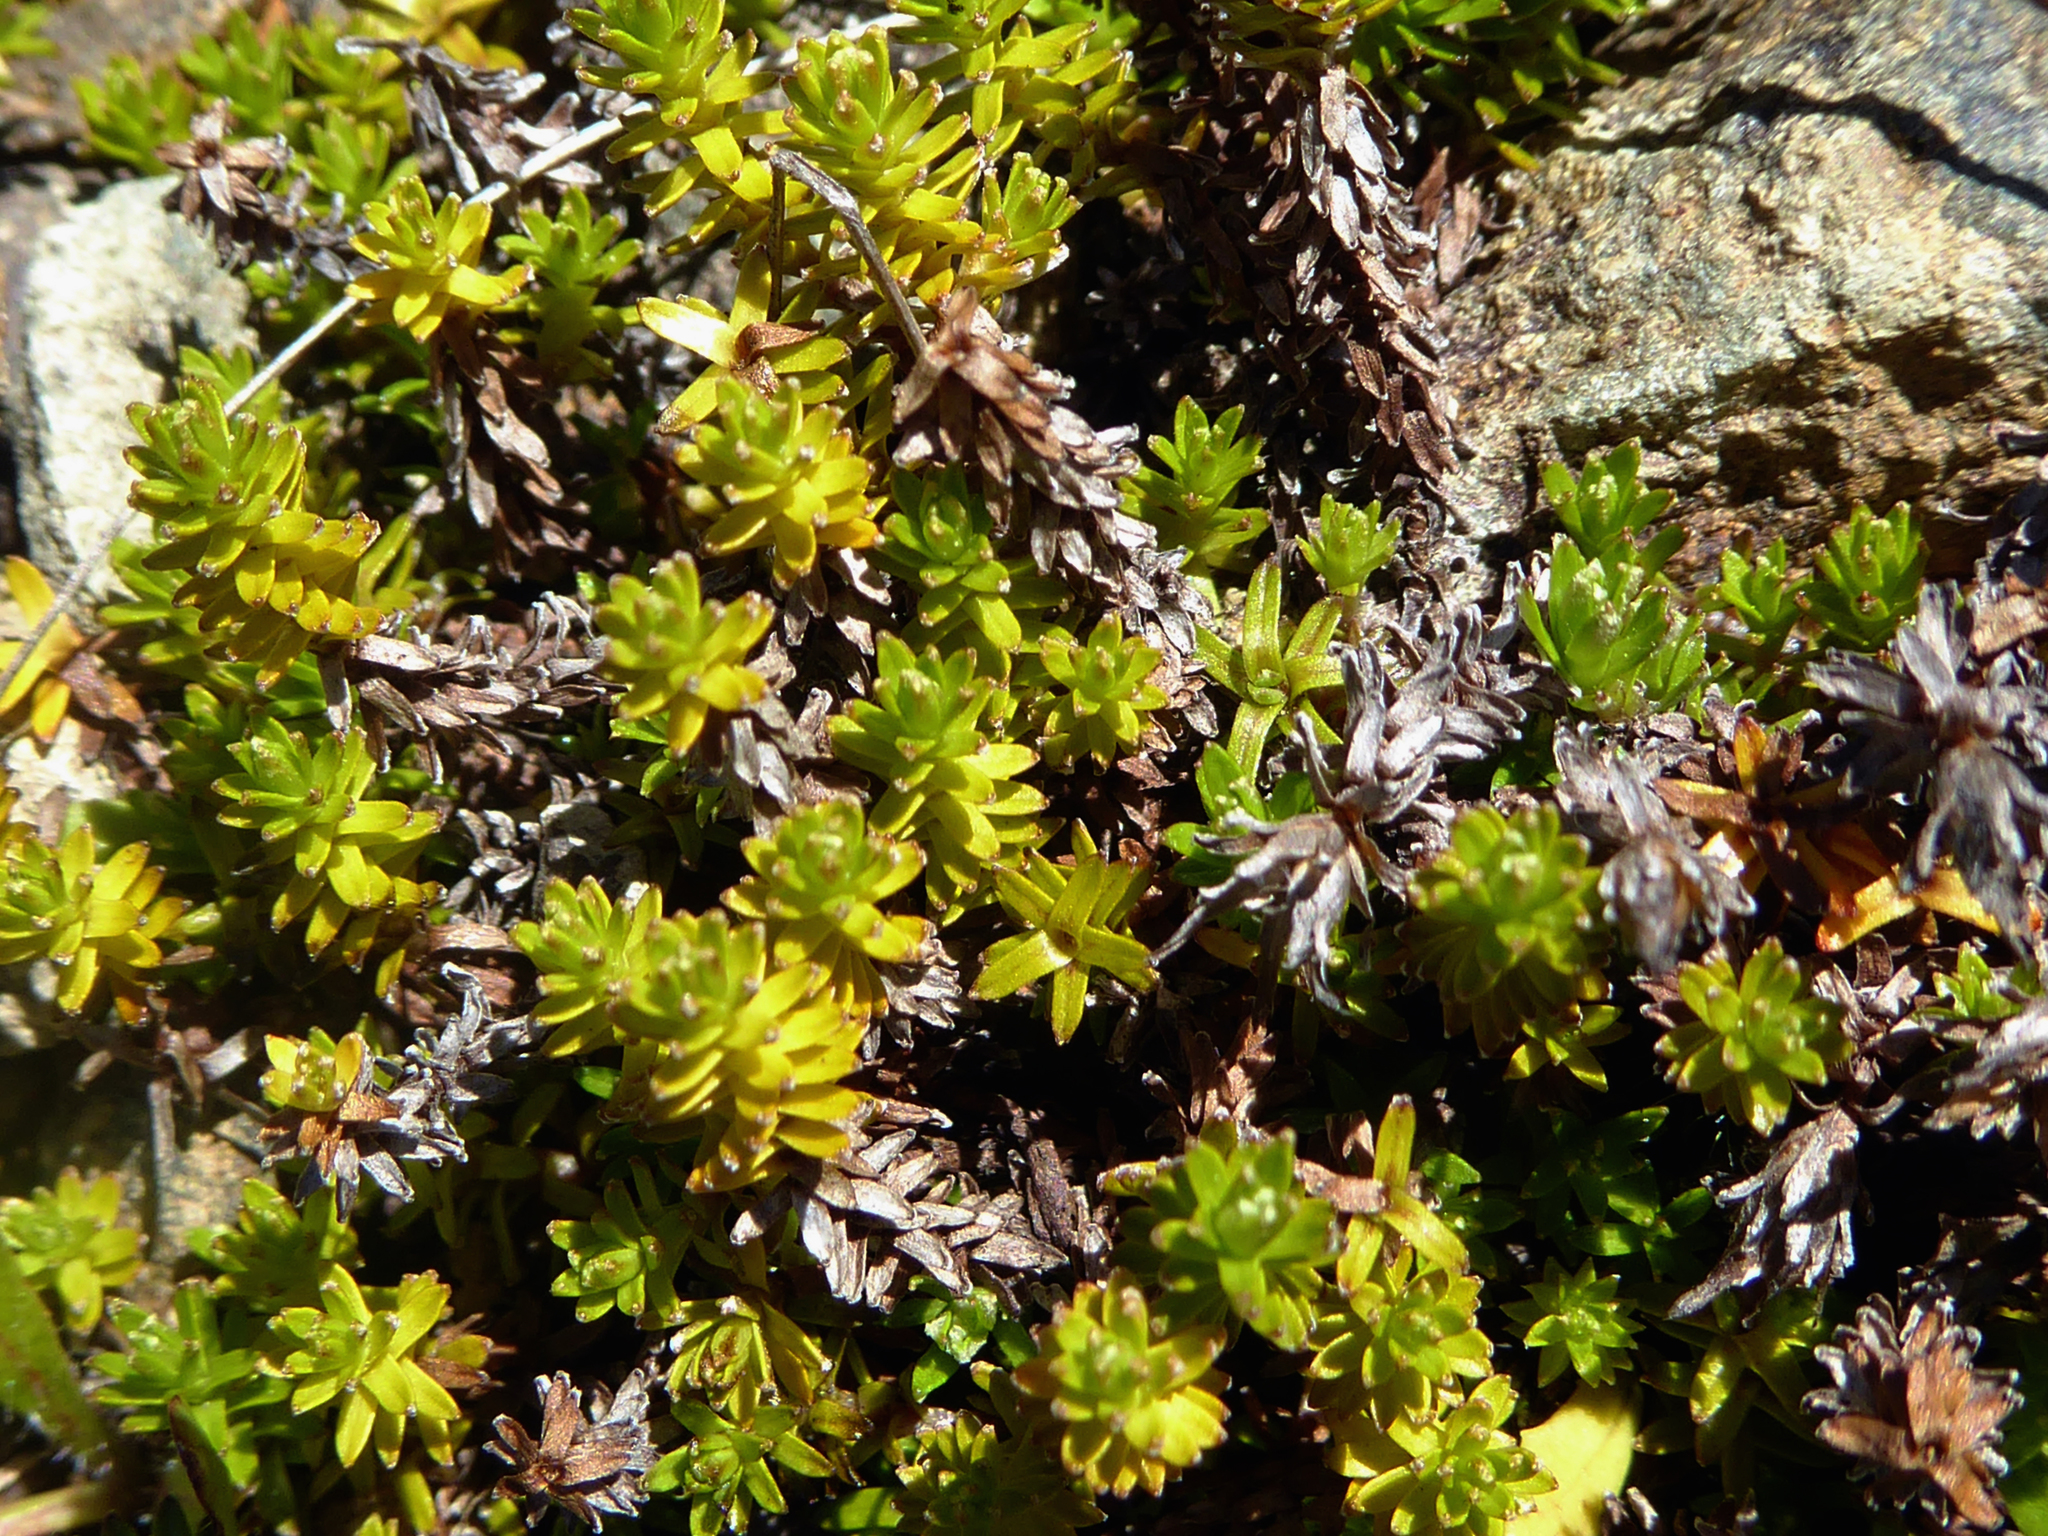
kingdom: Plantae
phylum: Tracheophyta
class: Magnoliopsida
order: Asterales
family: Asteraceae
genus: Raoulia
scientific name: Raoulia glabra
